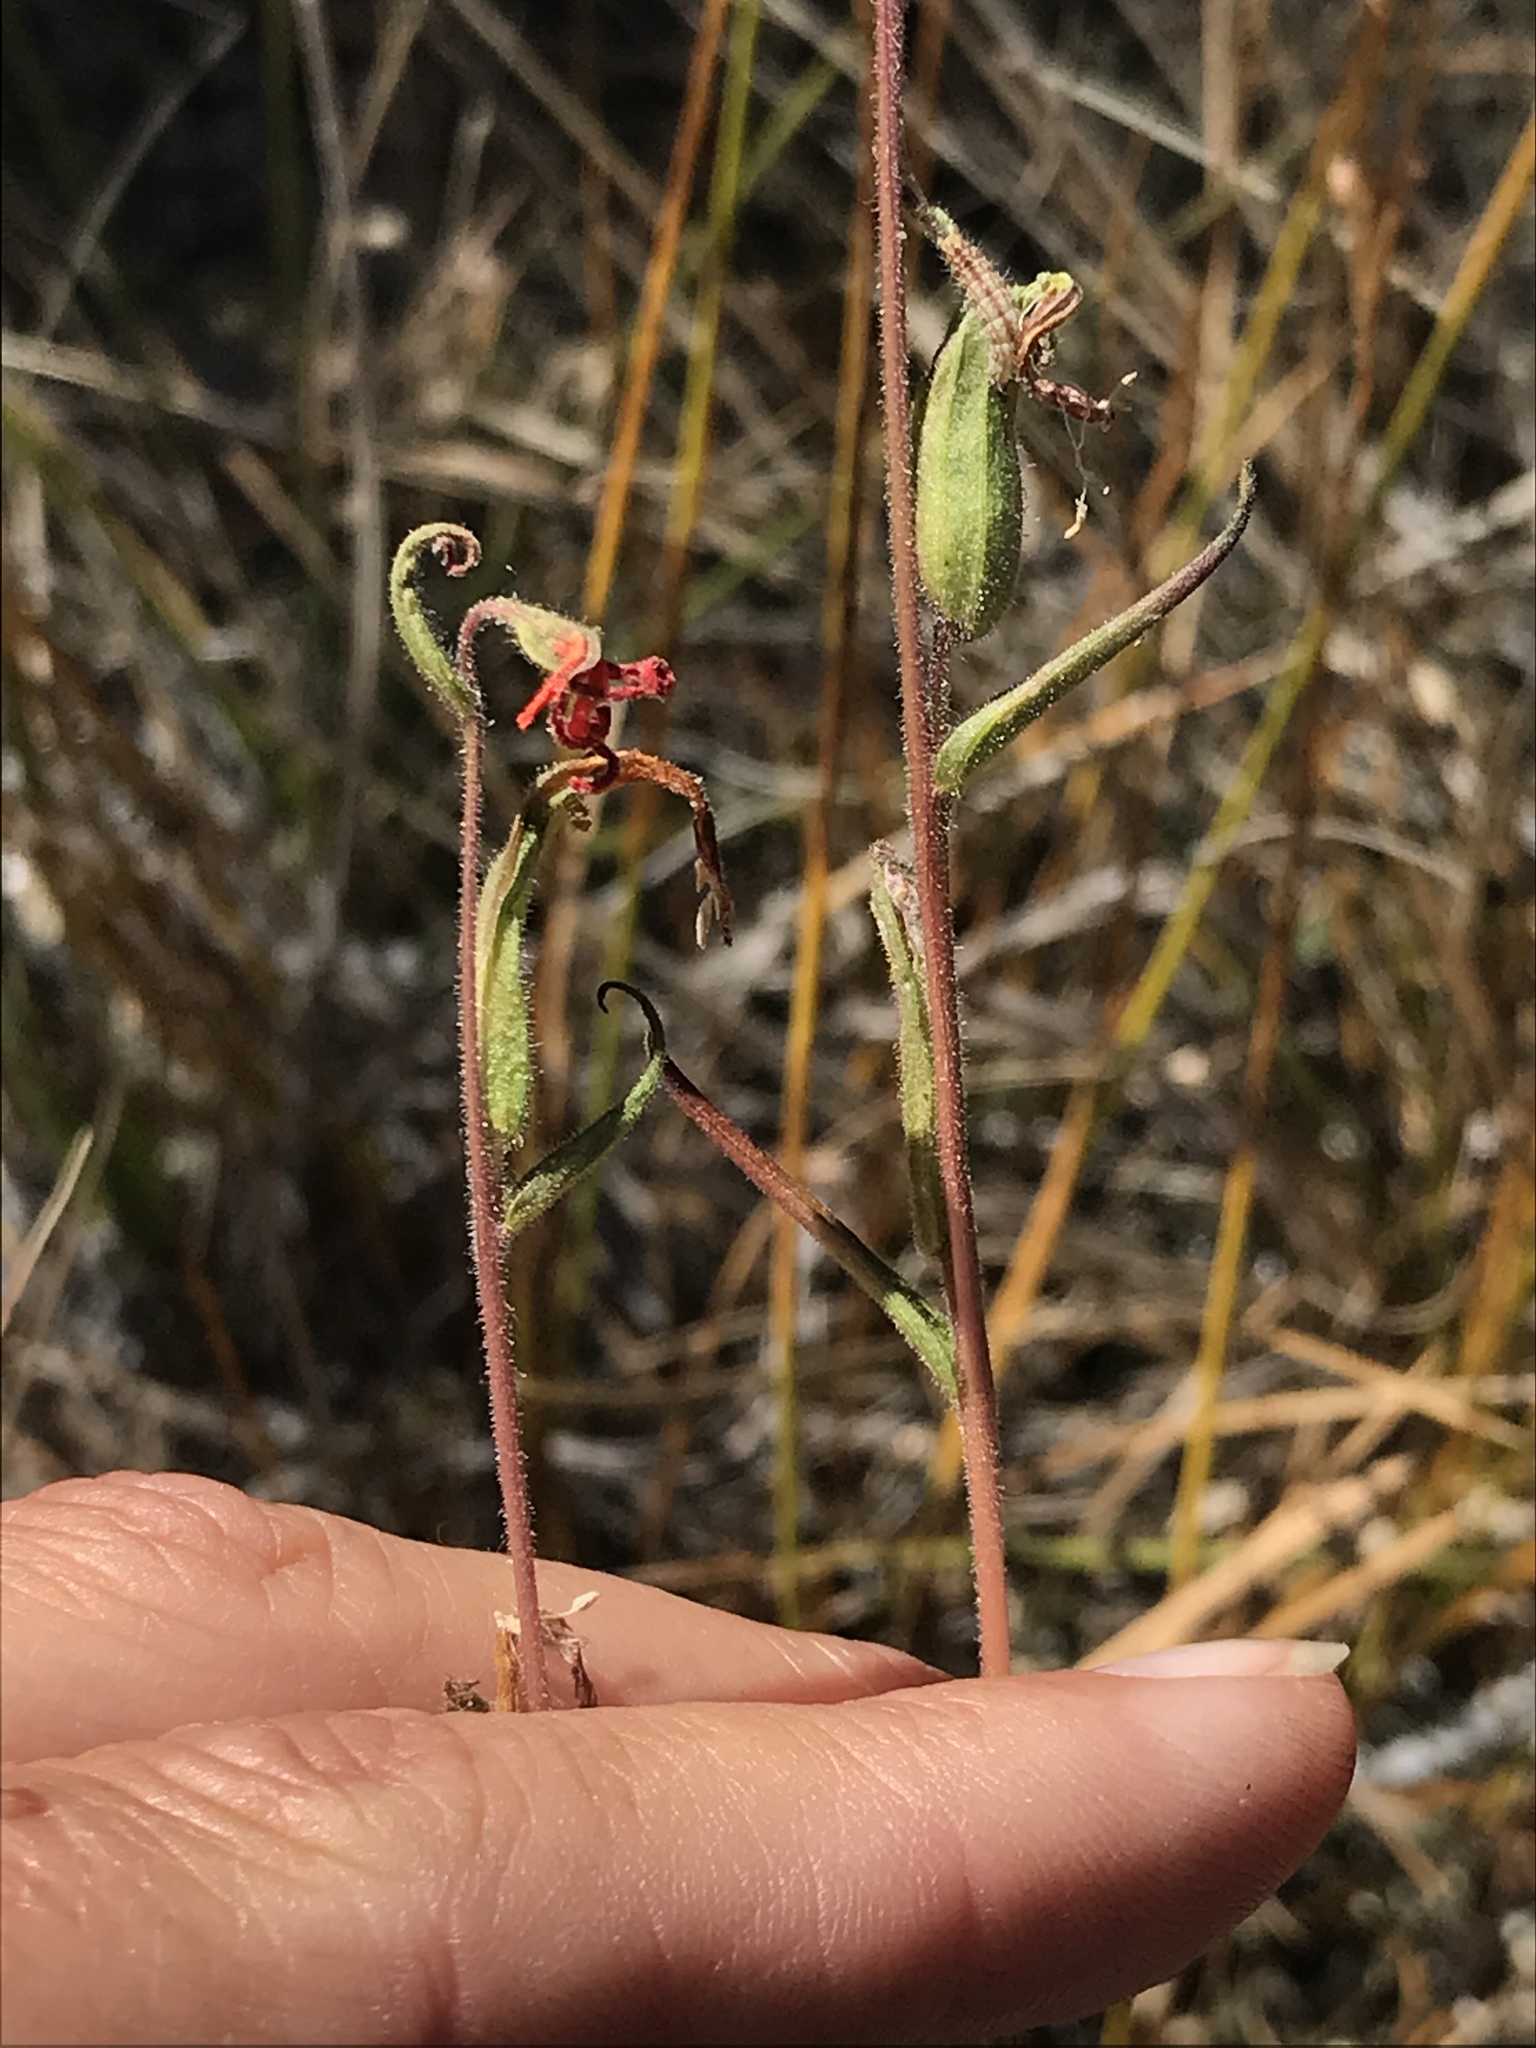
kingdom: Plantae
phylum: Tracheophyta
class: Magnoliopsida
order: Lamiales
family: Orobanchaceae
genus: Castilleja
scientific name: Castilleja minor
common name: Seep paintbrush
